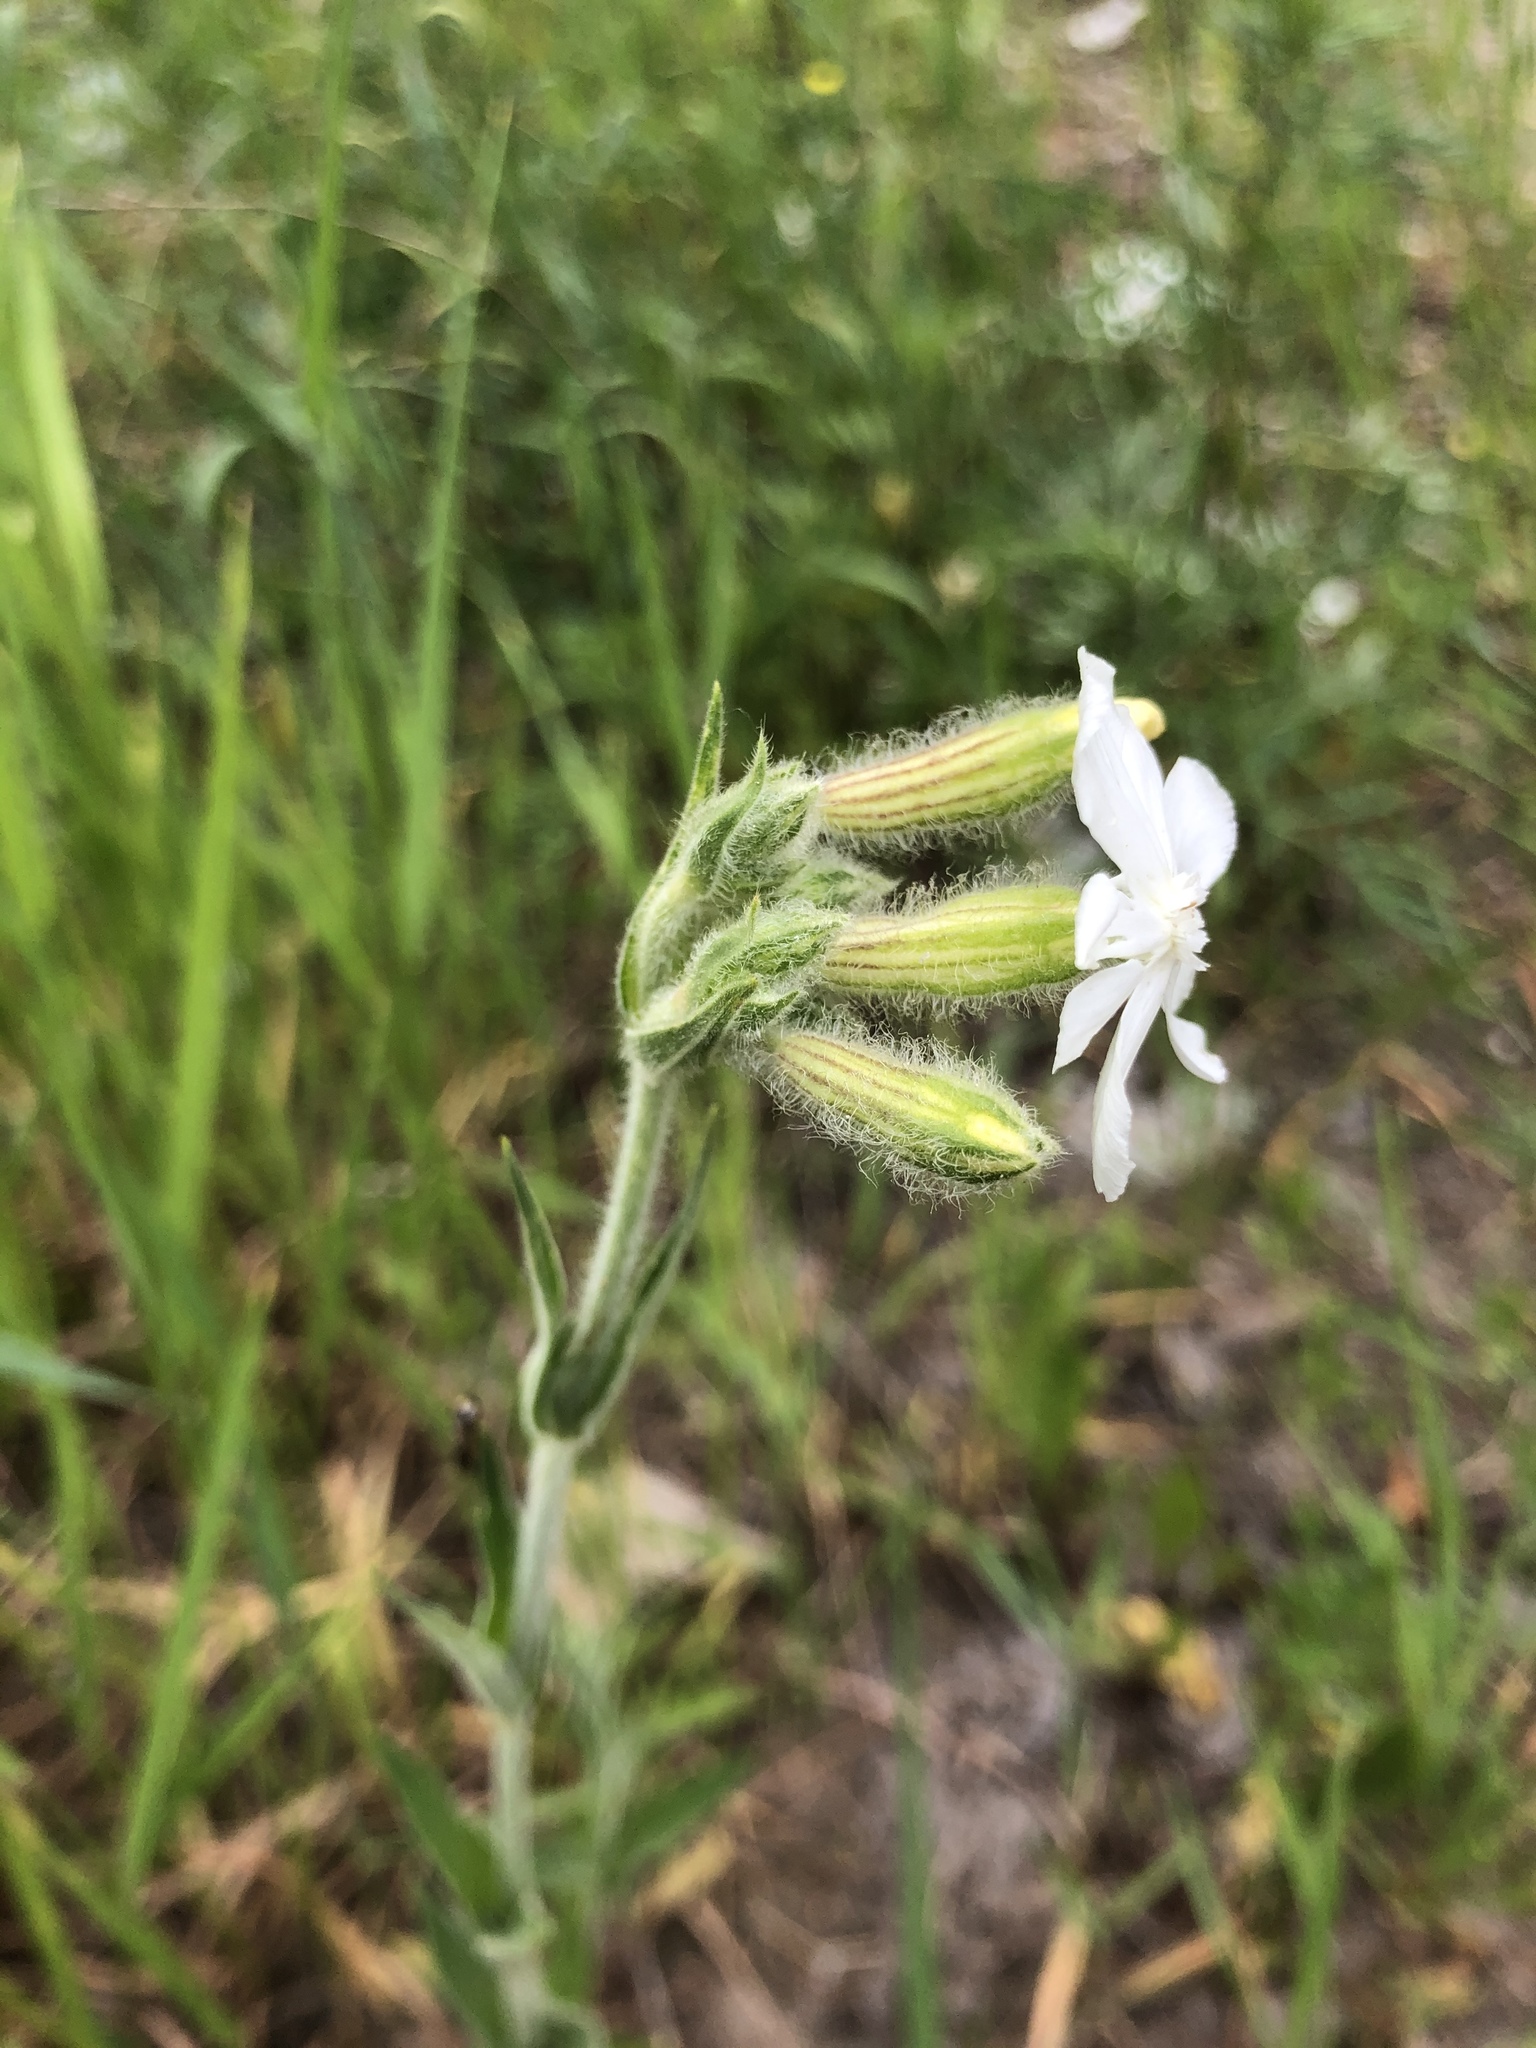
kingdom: Plantae
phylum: Tracheophyta
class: Magnoliopsida
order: Caryophyllales
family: Caryophyllaceae
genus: Silene
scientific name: Silene latifolia
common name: White campion
